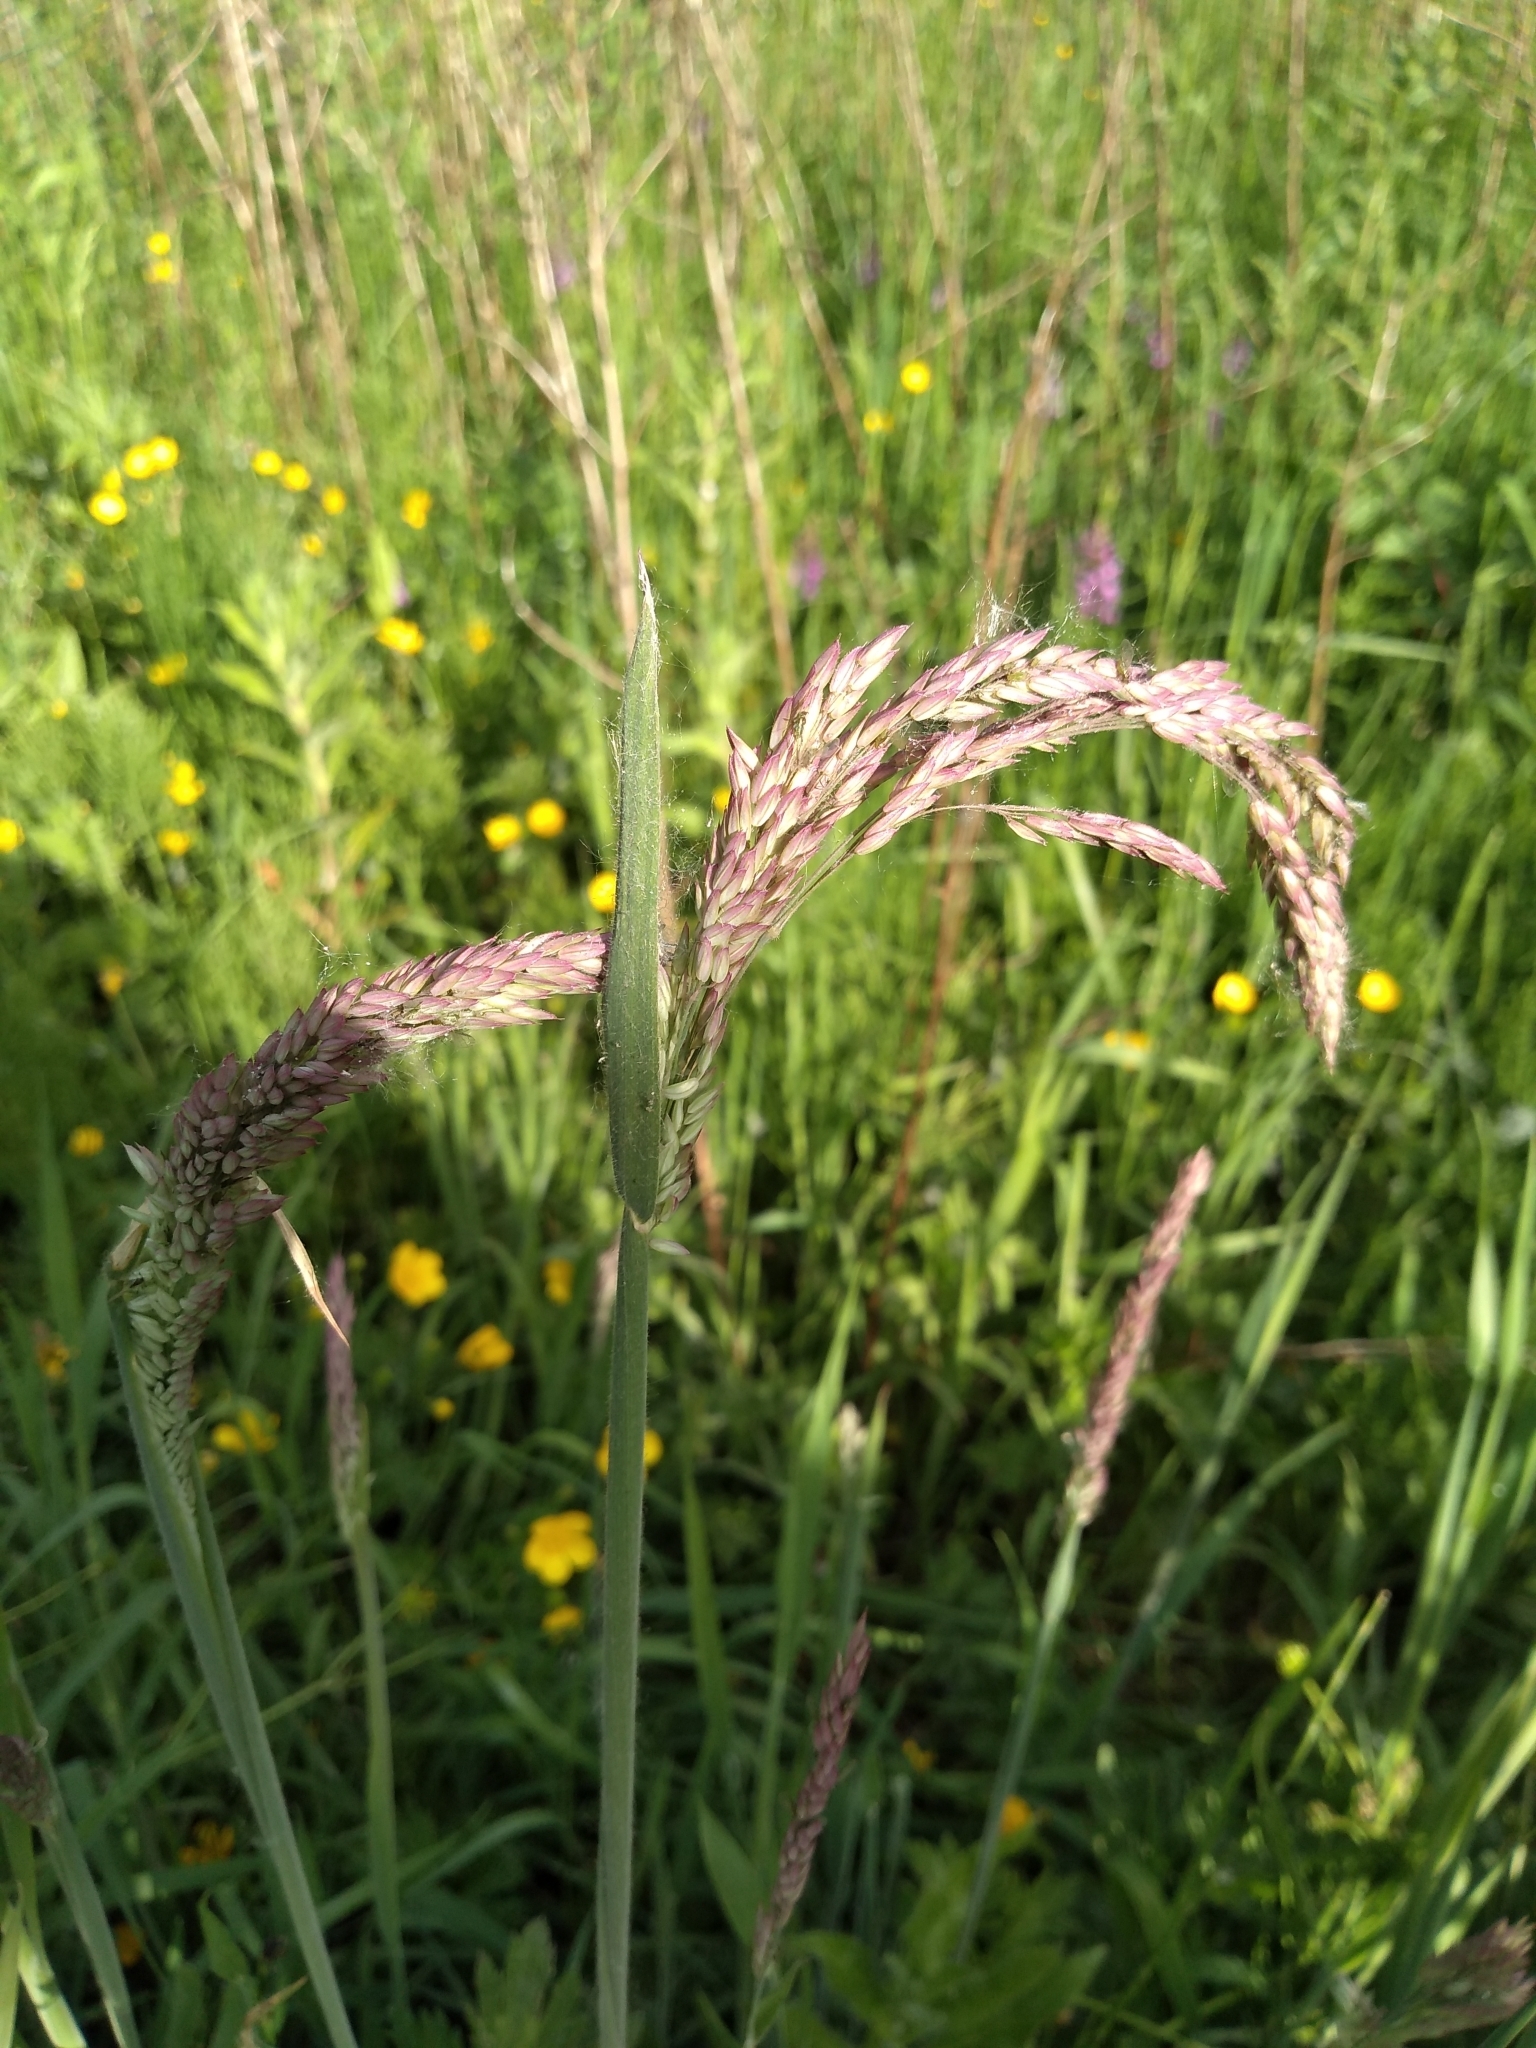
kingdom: Plantae
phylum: Tracheophyta
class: Liliopsida
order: Poales
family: Poaceae
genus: Holcus
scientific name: Holcus lanatus
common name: Yorkshire-fog
